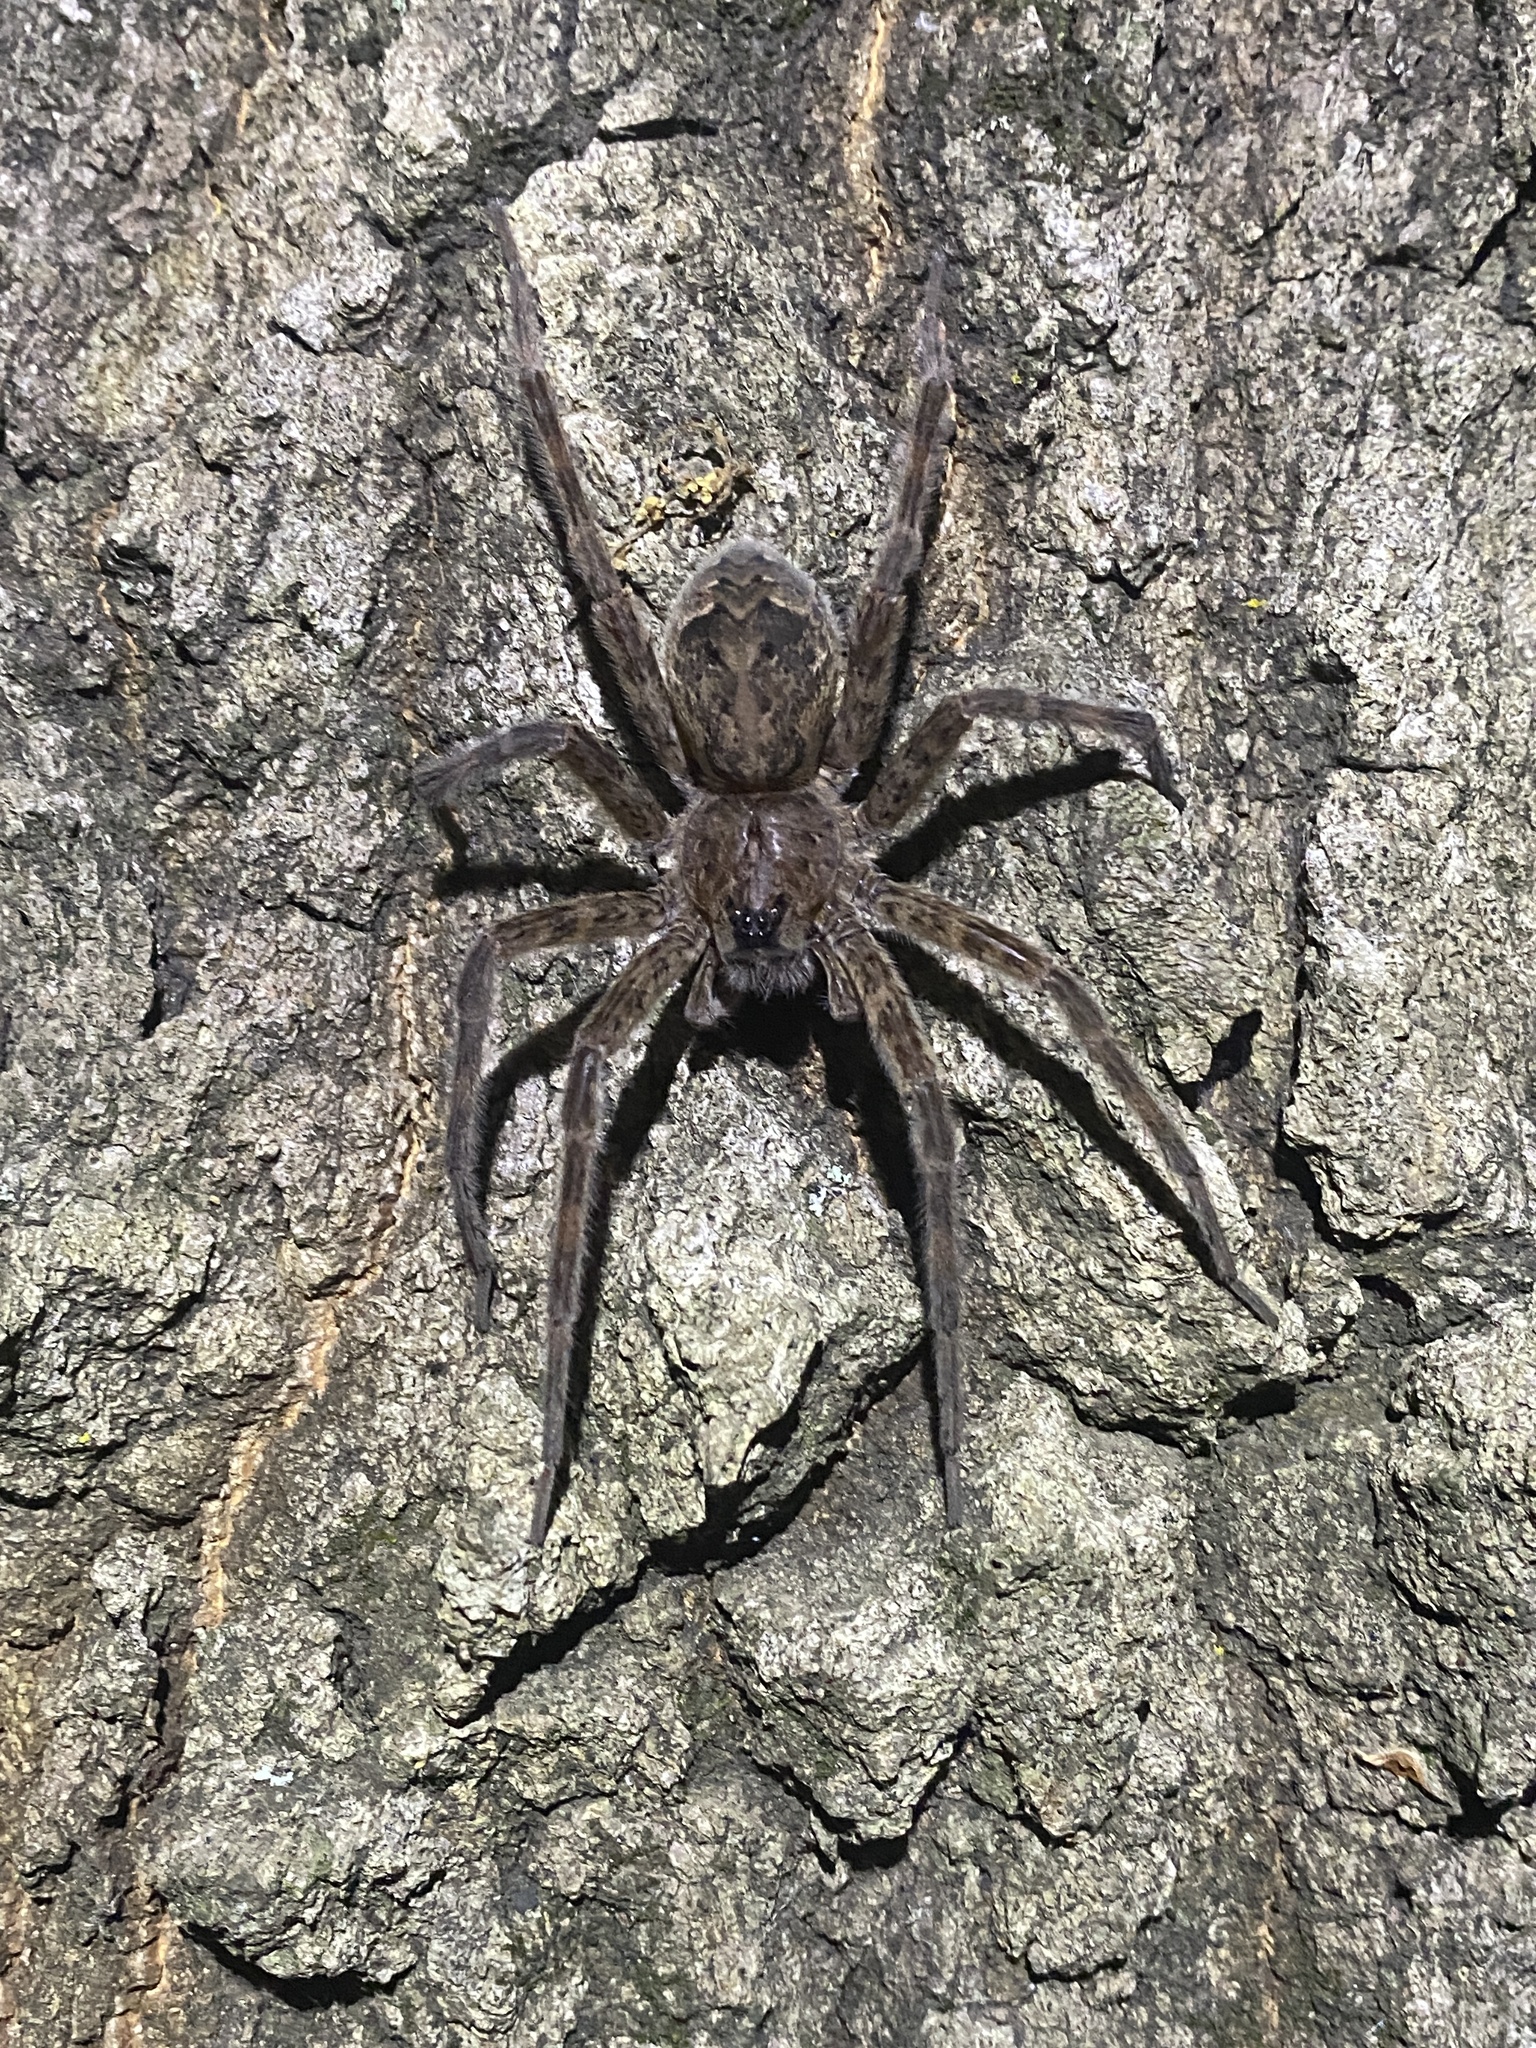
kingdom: Animalia
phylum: Arthropoda
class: Arachnida
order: Araneae
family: Pisauridae
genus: Dolomedes
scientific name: Dolomedes tenebrosus
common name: Dark fishing spider
